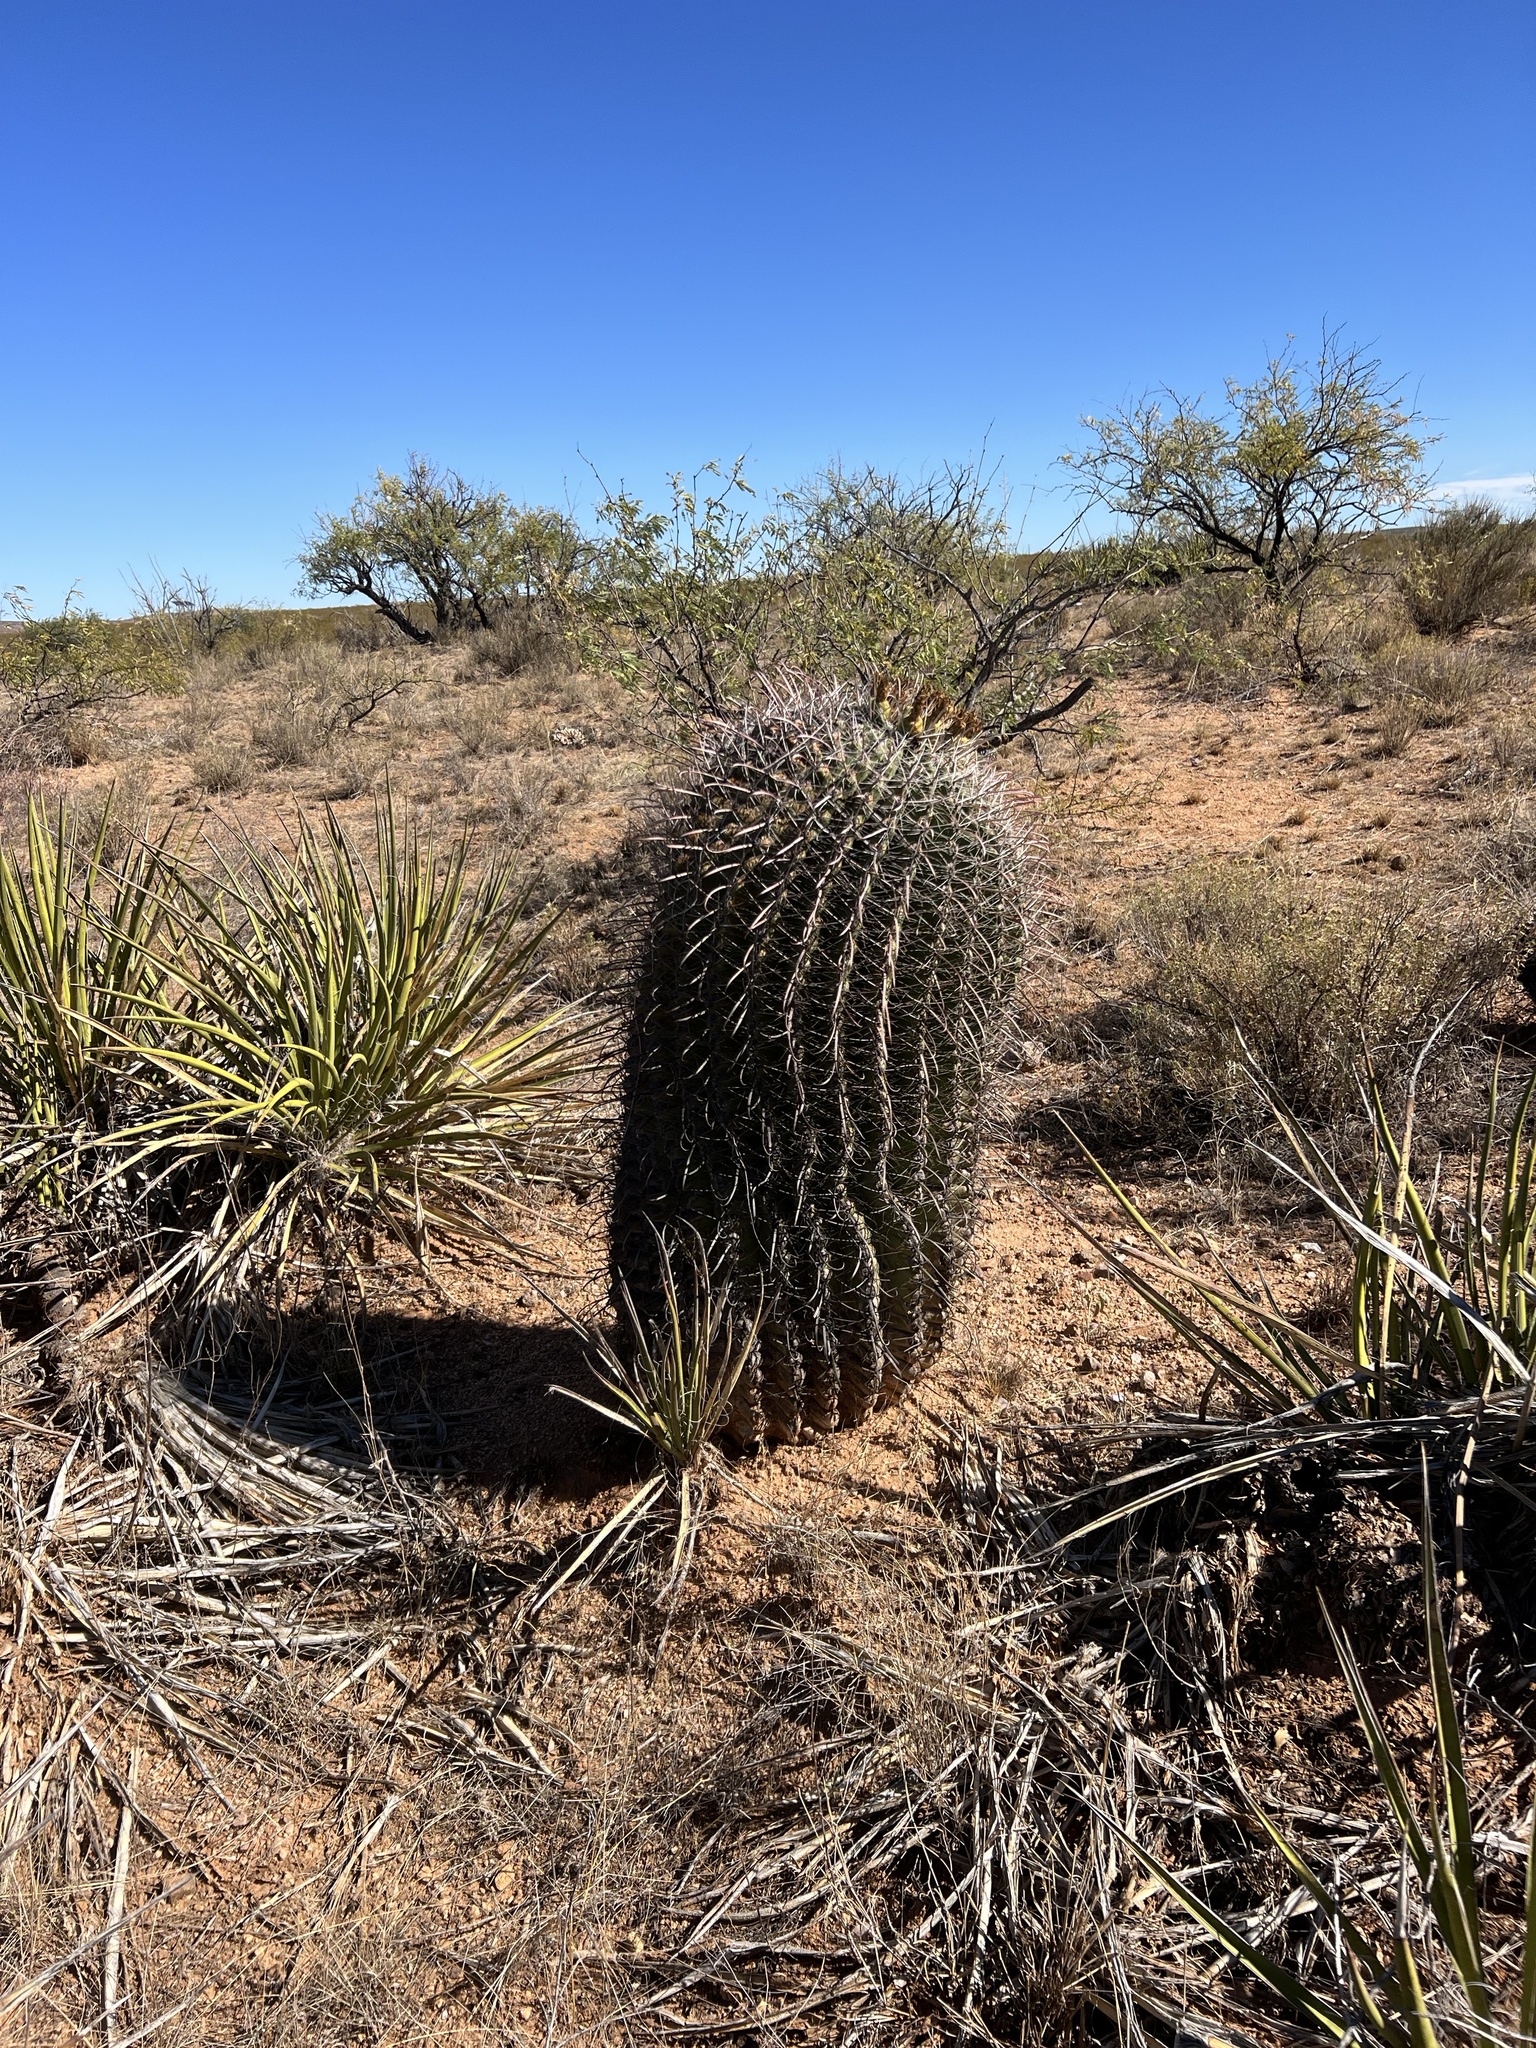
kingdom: Plantae
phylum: Tracheophyta
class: Magnoliopsida
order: Caryophyllales
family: Cactaceae
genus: Ferocactus
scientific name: Ferocactus wislizeni
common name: Candy barrel cactus
